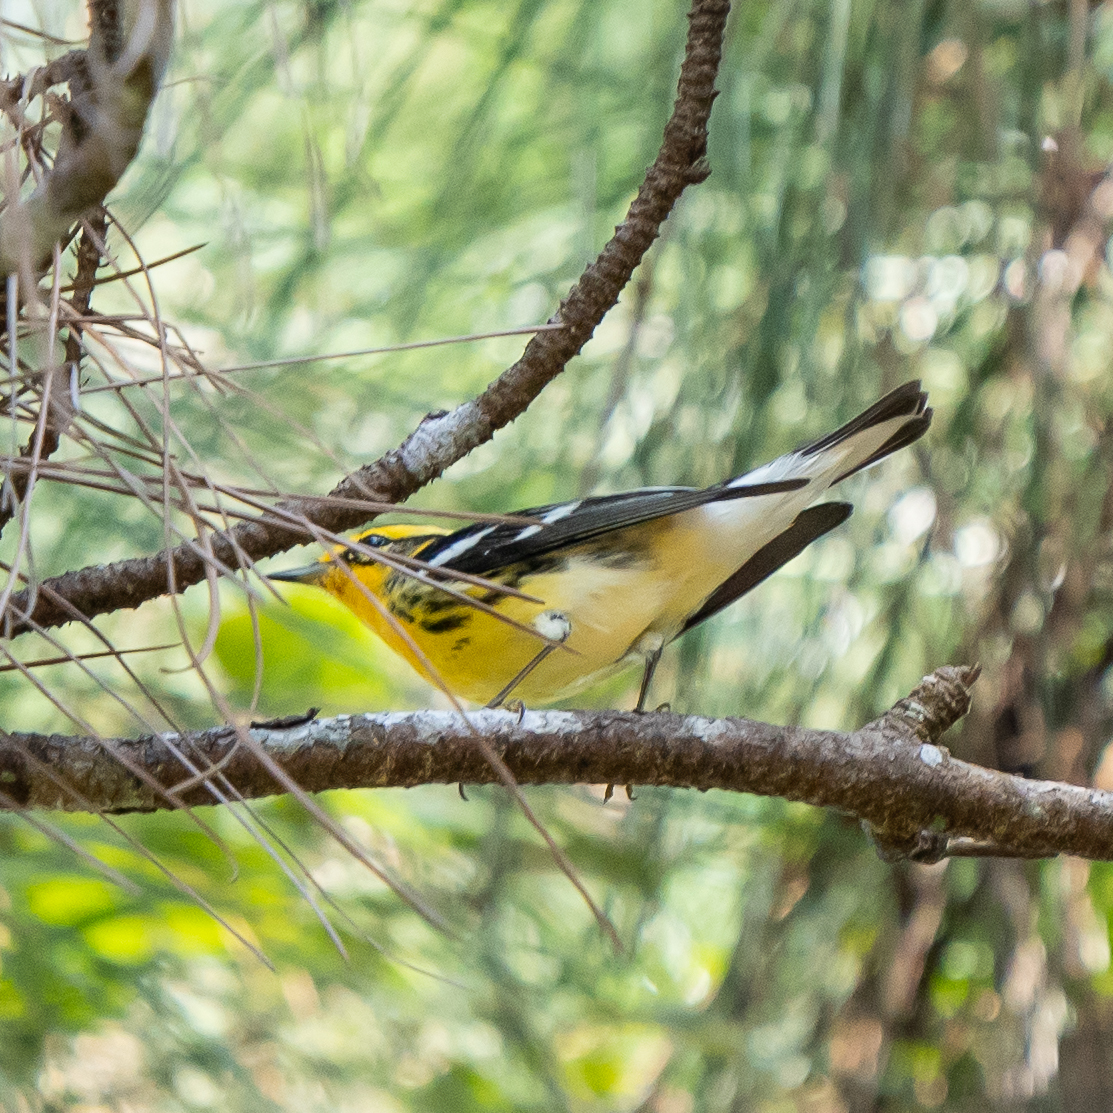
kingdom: Animalia
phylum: Chordata
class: Aves
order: Passeriformes
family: Parulidae
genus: Setophaga
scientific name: Setophaga fusca
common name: Blackburnian warbler
